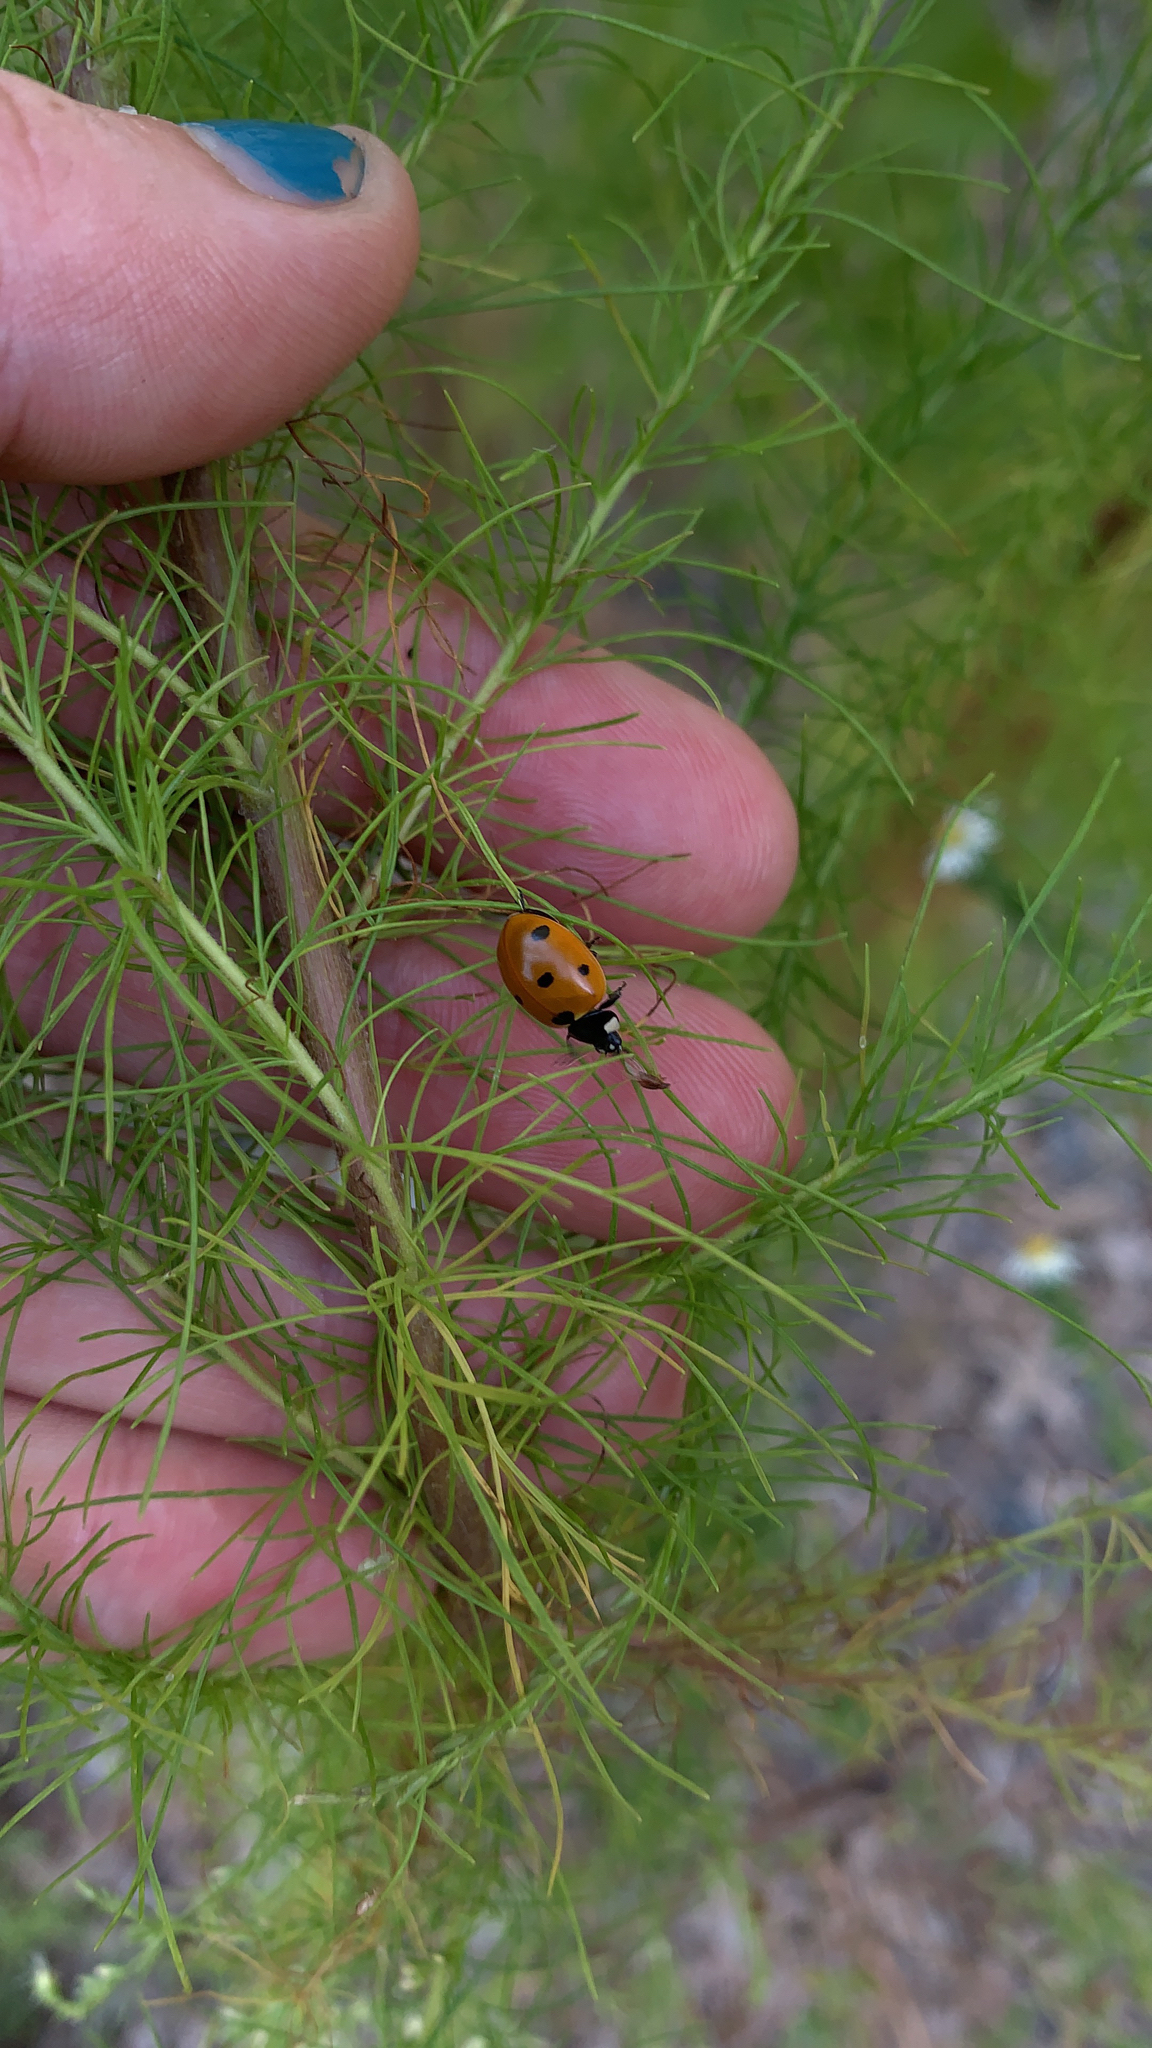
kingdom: Animalia
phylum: Arthropoda
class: Insecta
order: Coleoptera
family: Coccinellidae
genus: Coccinella
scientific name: Coccinella septempunctata
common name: Sevenspotted lady beetle
